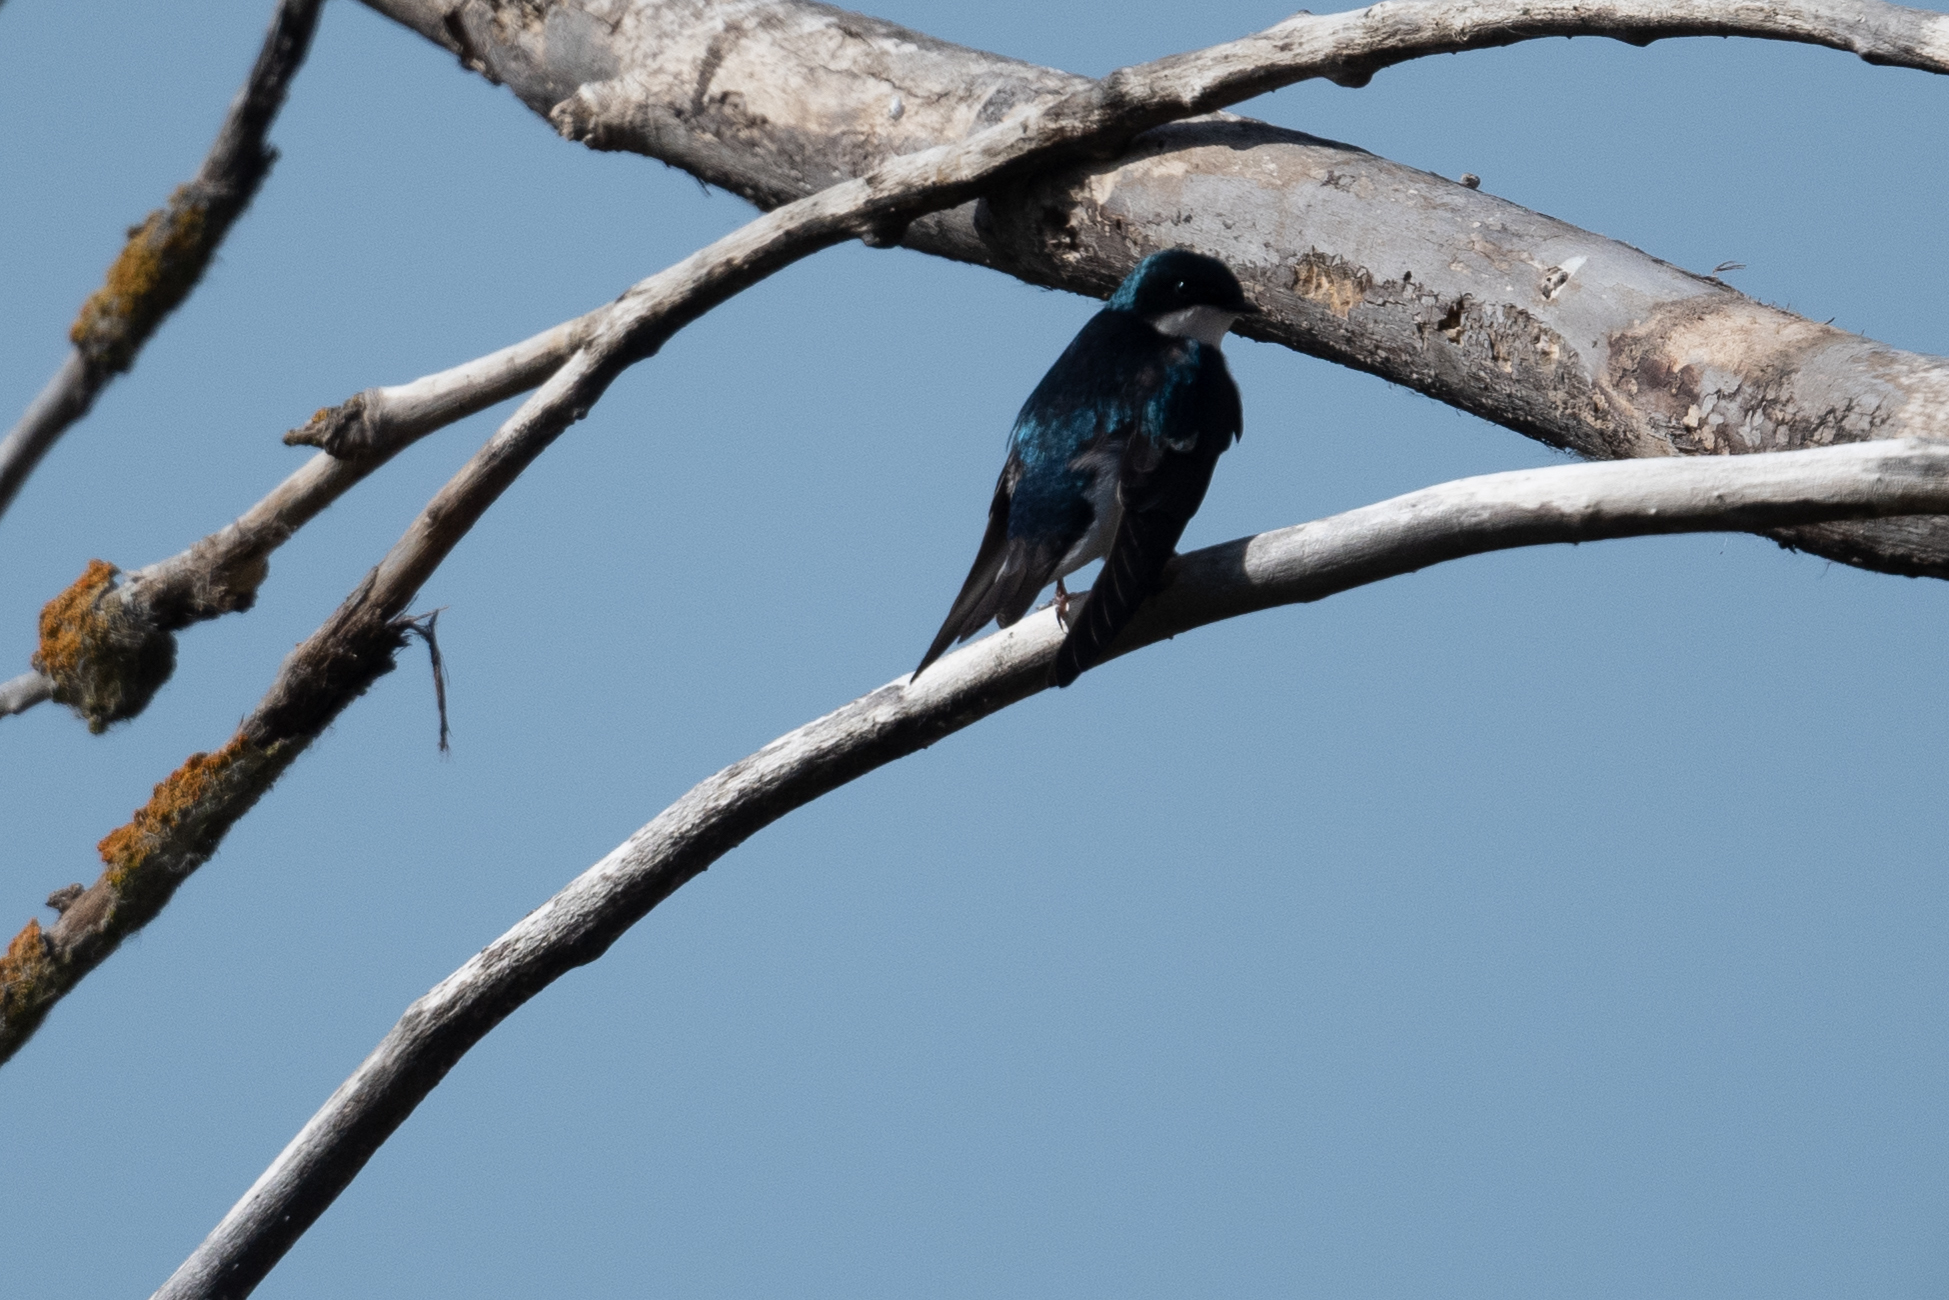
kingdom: Animalia
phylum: Chordata
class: Aves
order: Passeriformes
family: Hirundinidae
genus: Tachycineta
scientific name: Tachycineta bicolor
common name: Tree swallow
